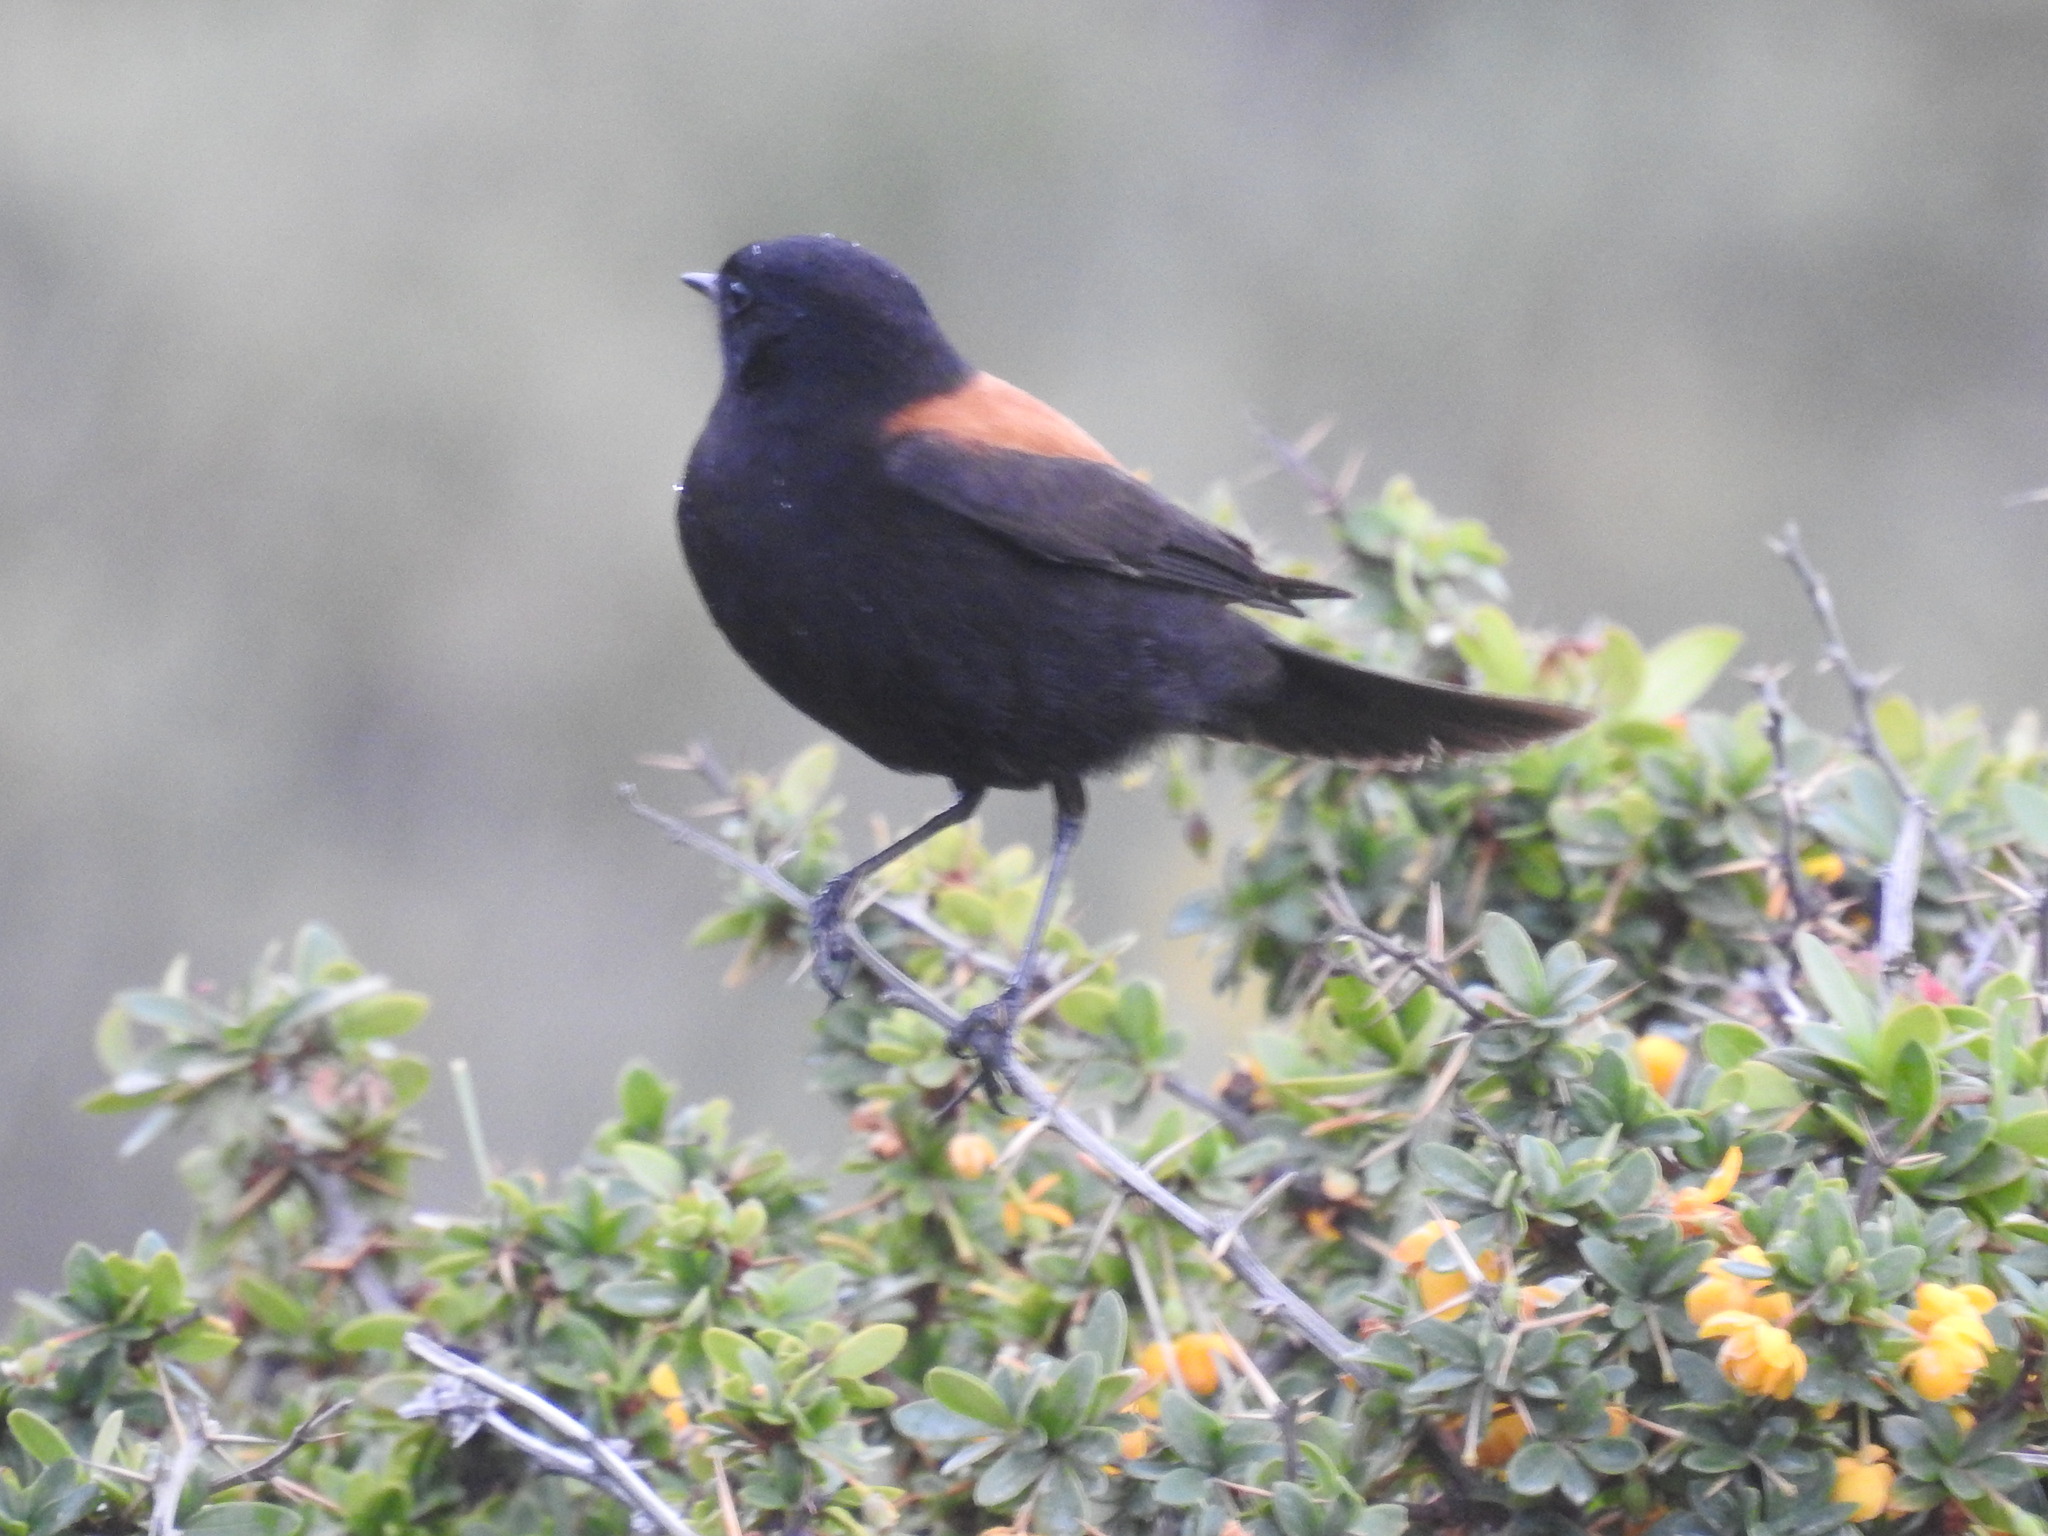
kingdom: Animalia
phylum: Chordata
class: Aves
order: Passeriformes
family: Tyrannidae
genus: Lessonia
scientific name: Lessonia rufa
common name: Austral negrito
